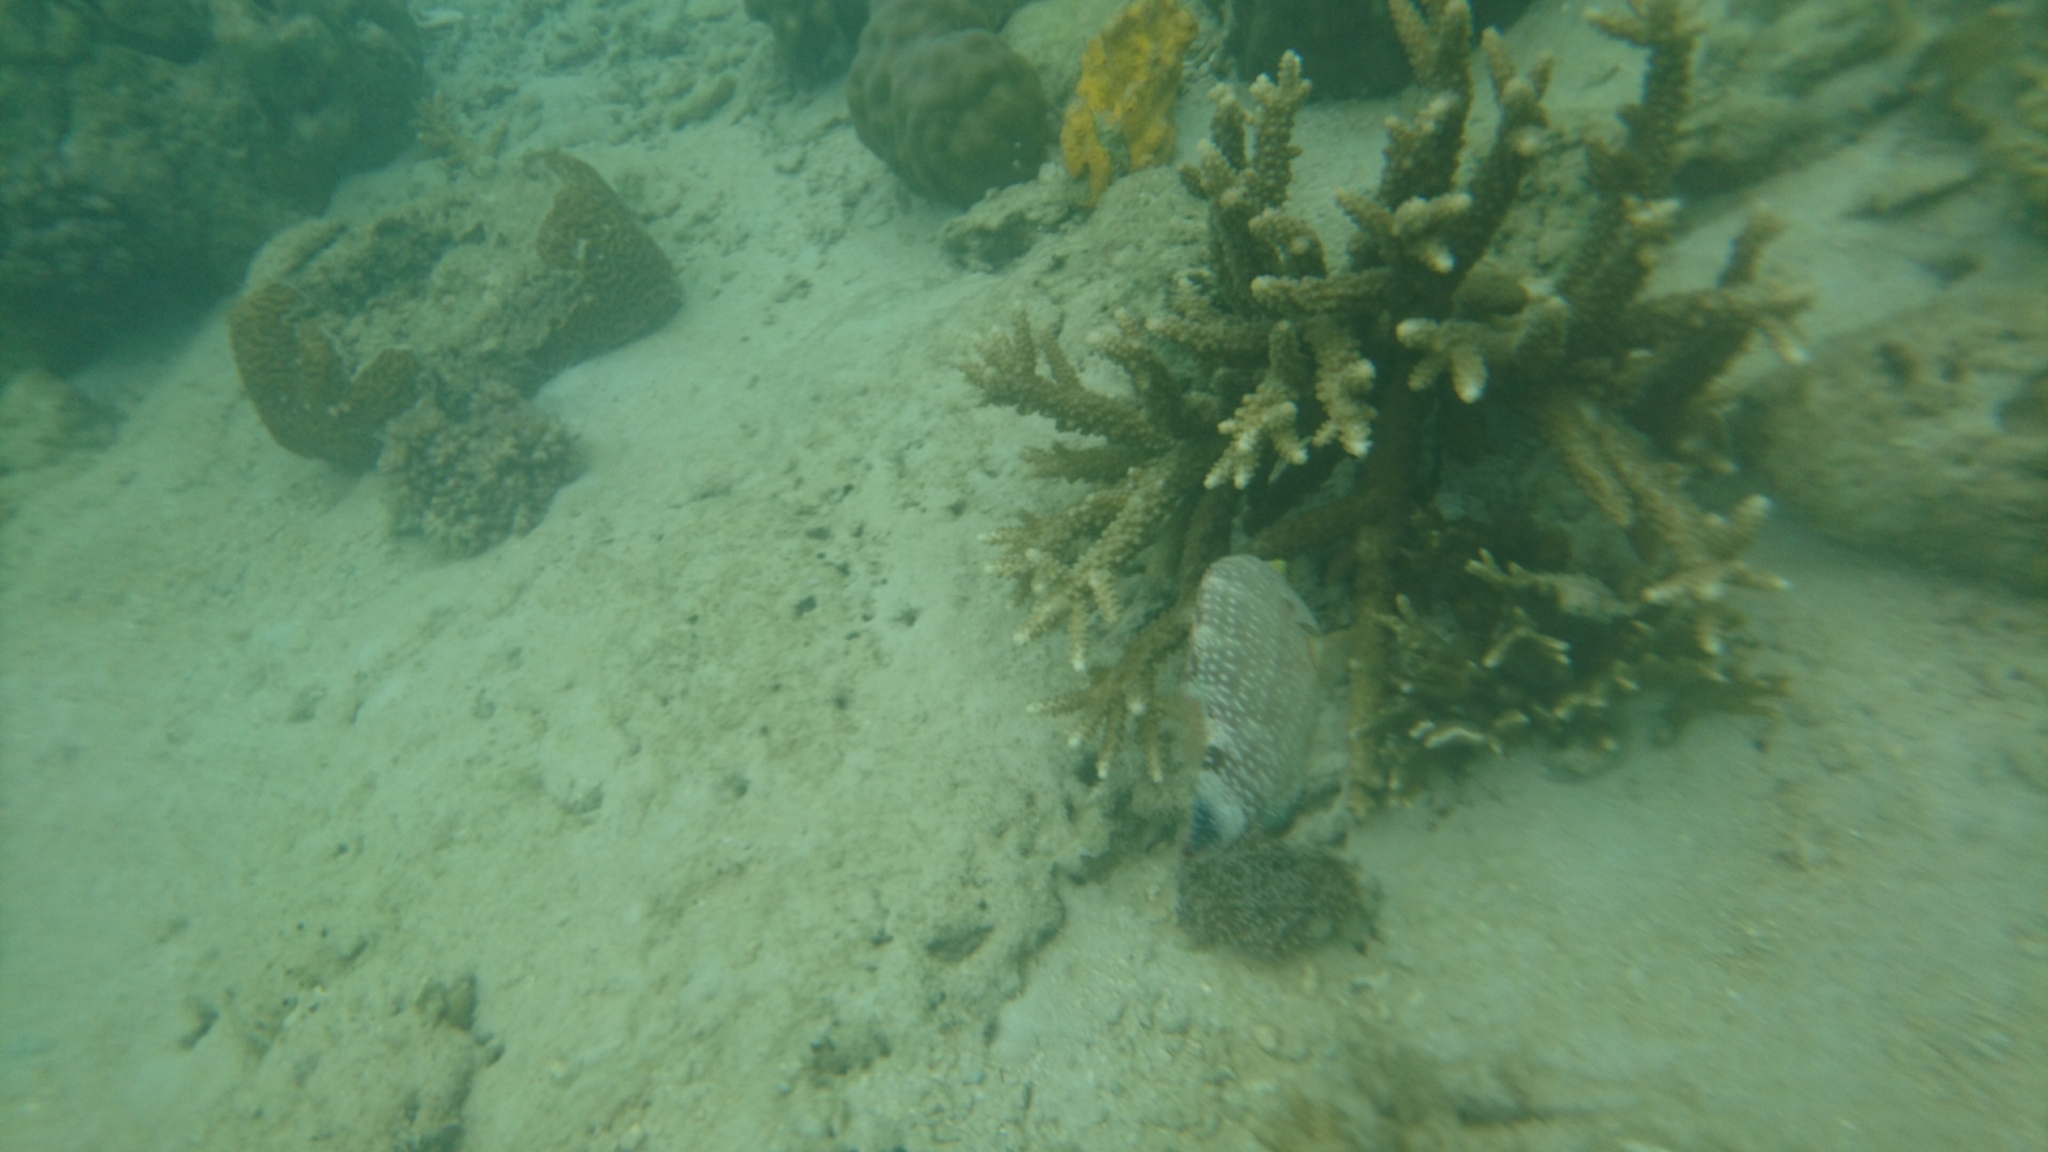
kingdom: Animalia
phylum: Chordata
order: Perciformes
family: Labridae
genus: Cheilinus
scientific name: Cheilinus chlorourus
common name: Floral wrasse
